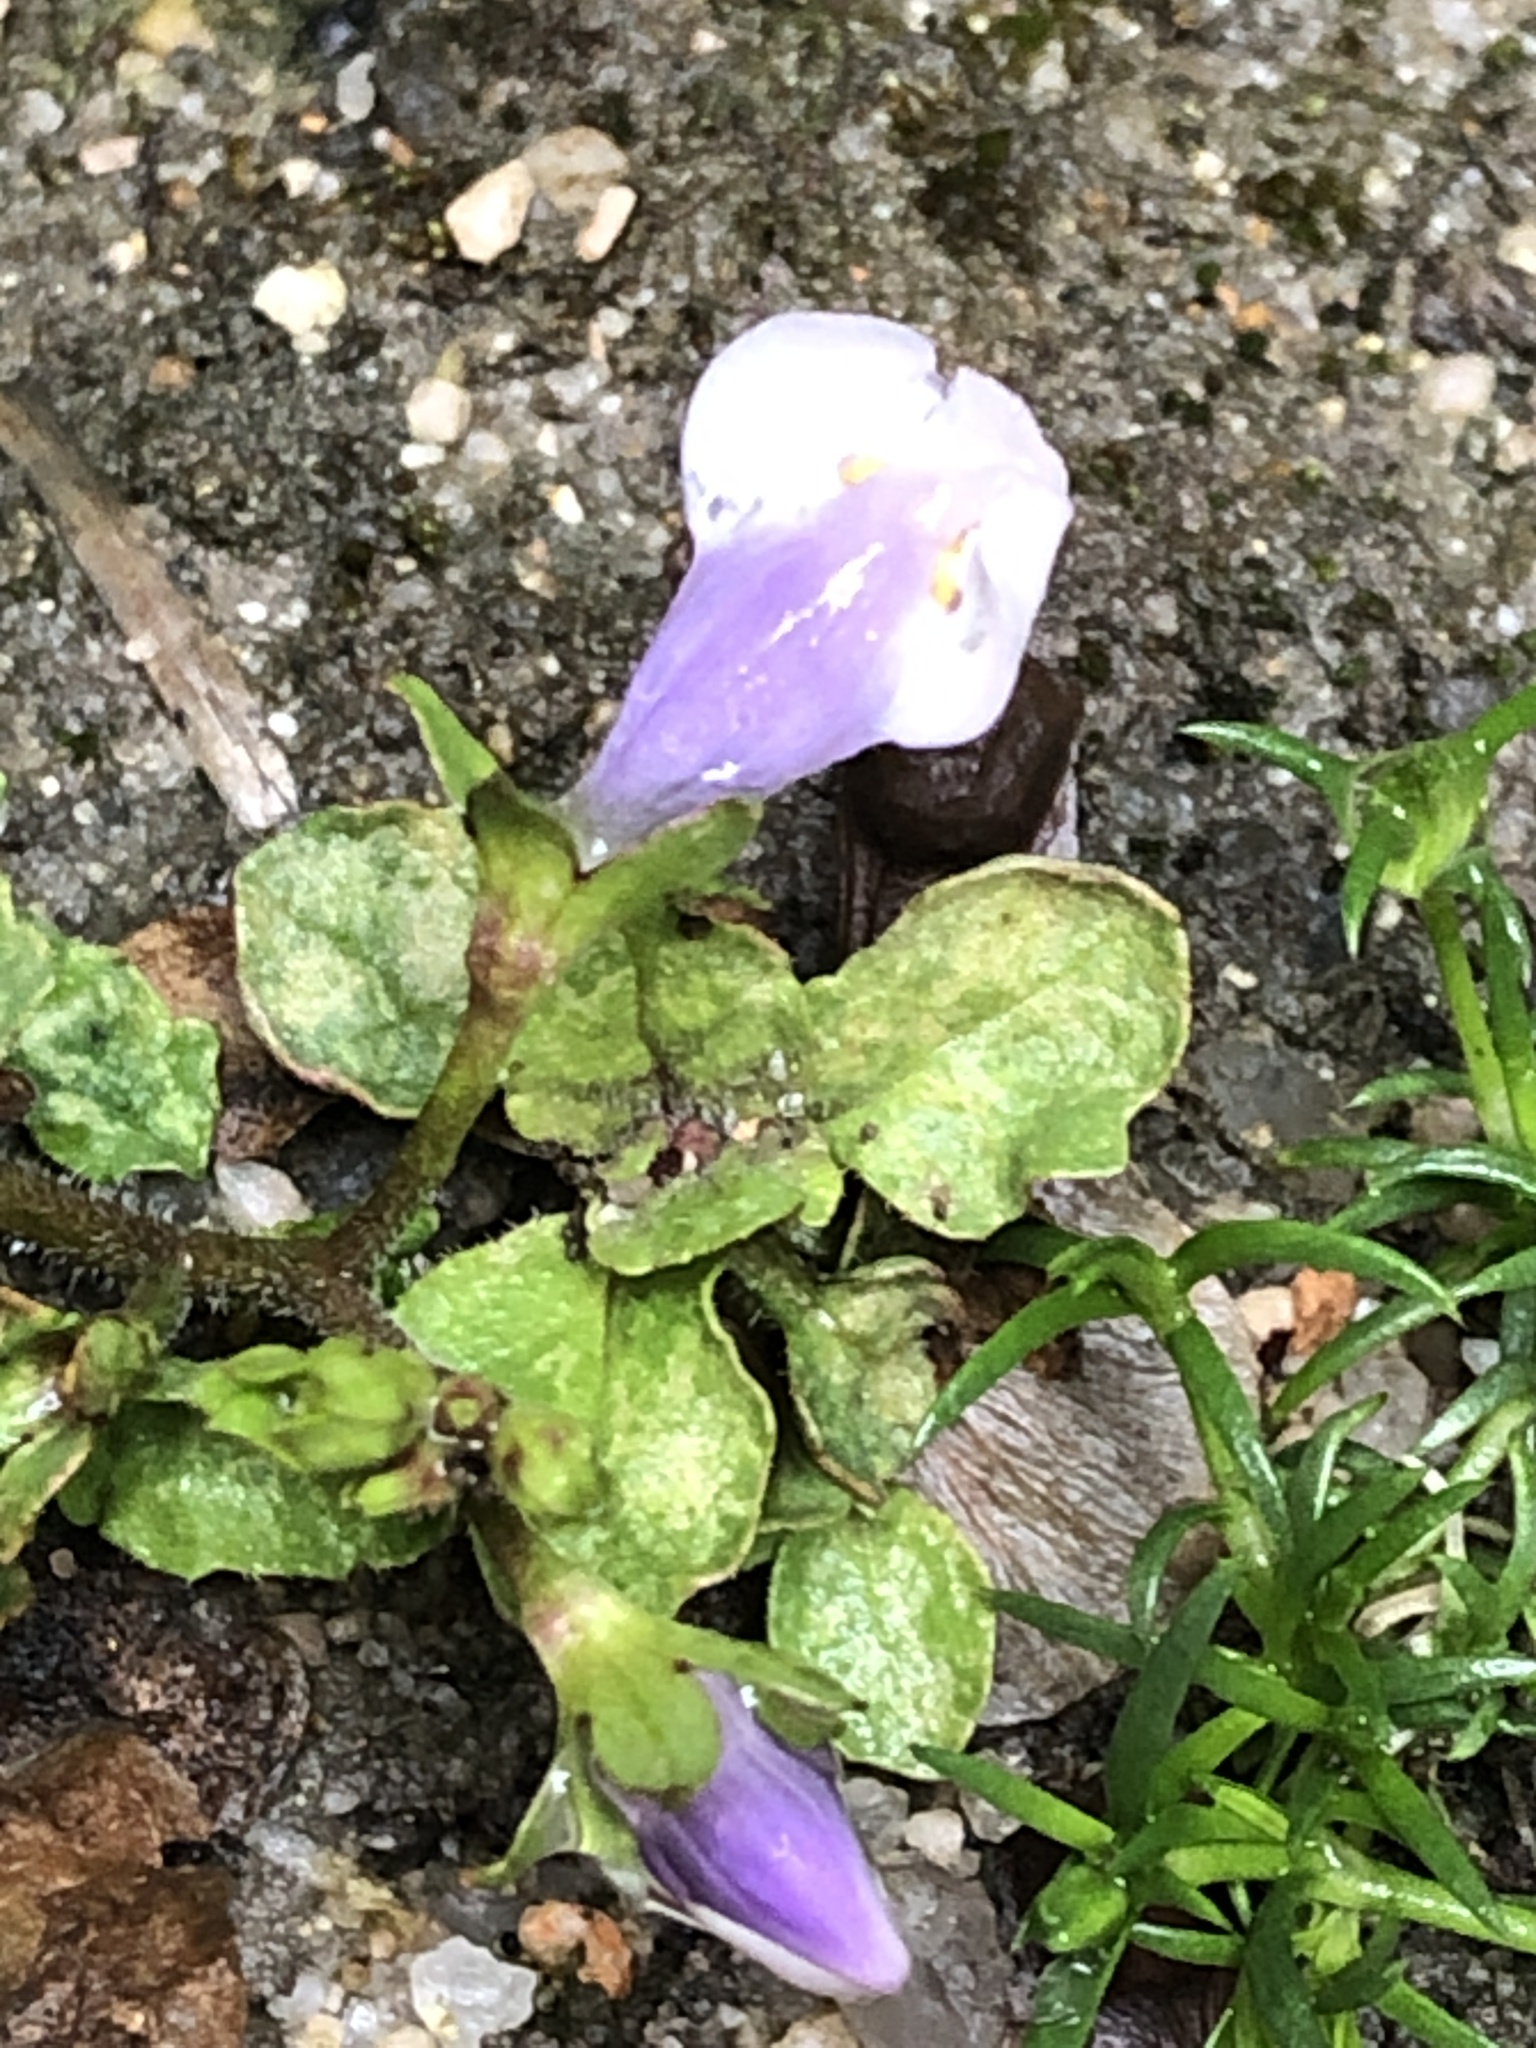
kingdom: Plantae
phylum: Tracheophyta
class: Magnoliopsida
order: Lamiales
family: Mazaceae
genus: Mazus
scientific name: Mazus pumilus
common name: Japanese mazus
